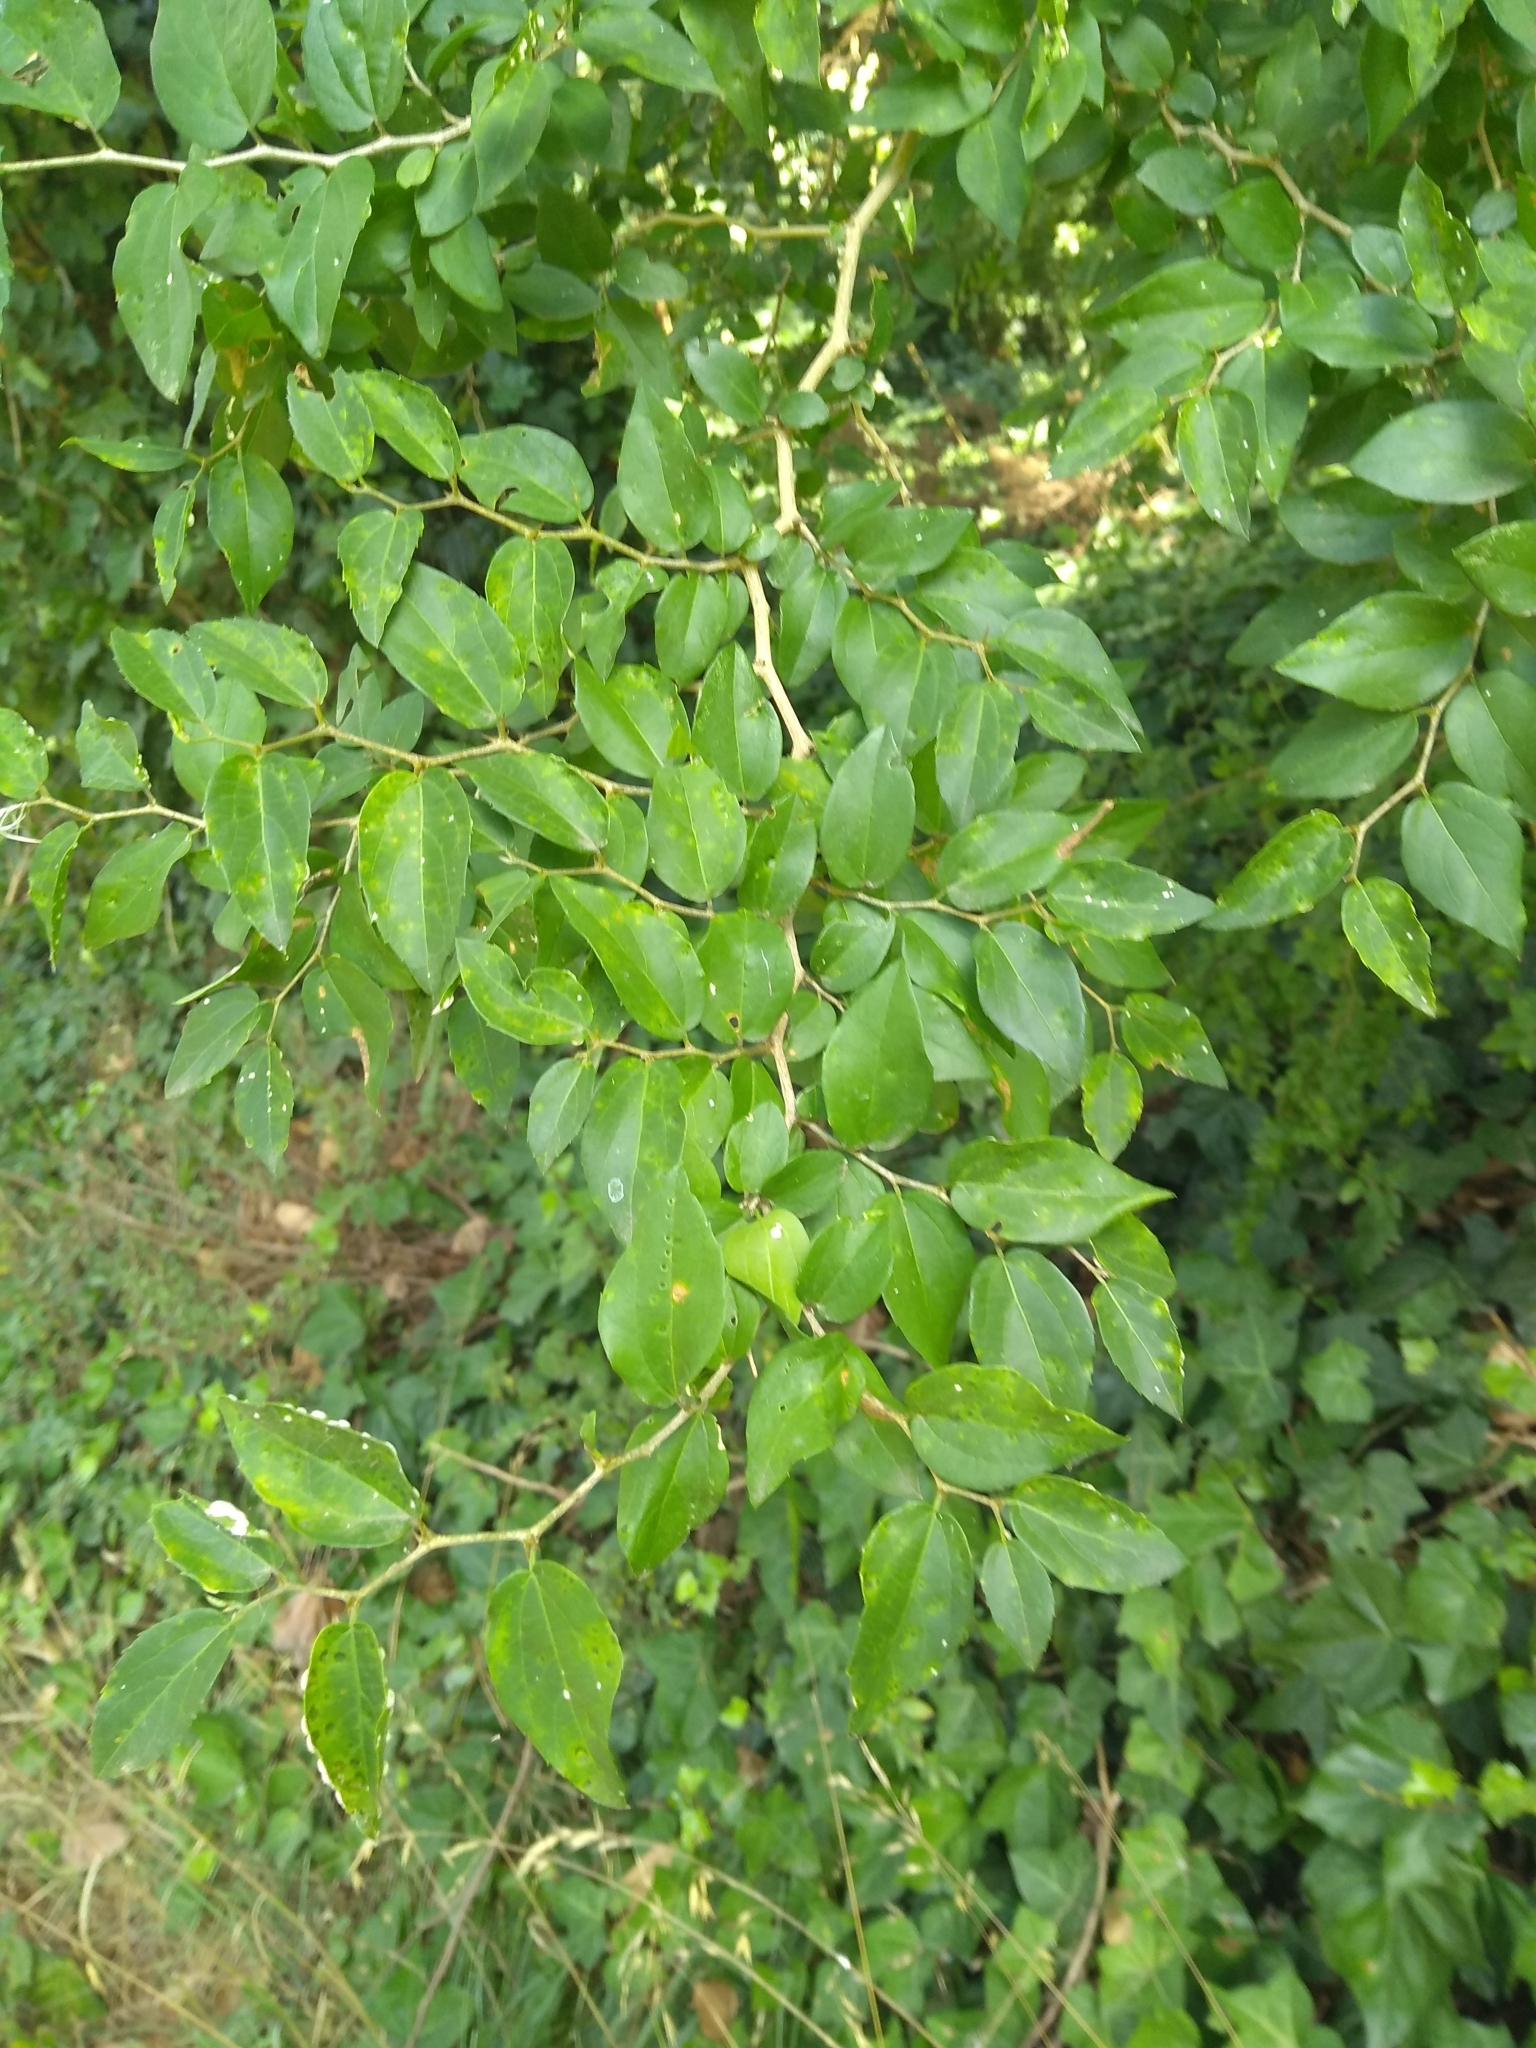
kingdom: Plantae
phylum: Tracheophyta
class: Magnoliopsida
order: Rosales
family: Cannabaceae
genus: Celtis
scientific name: Celtis tala
